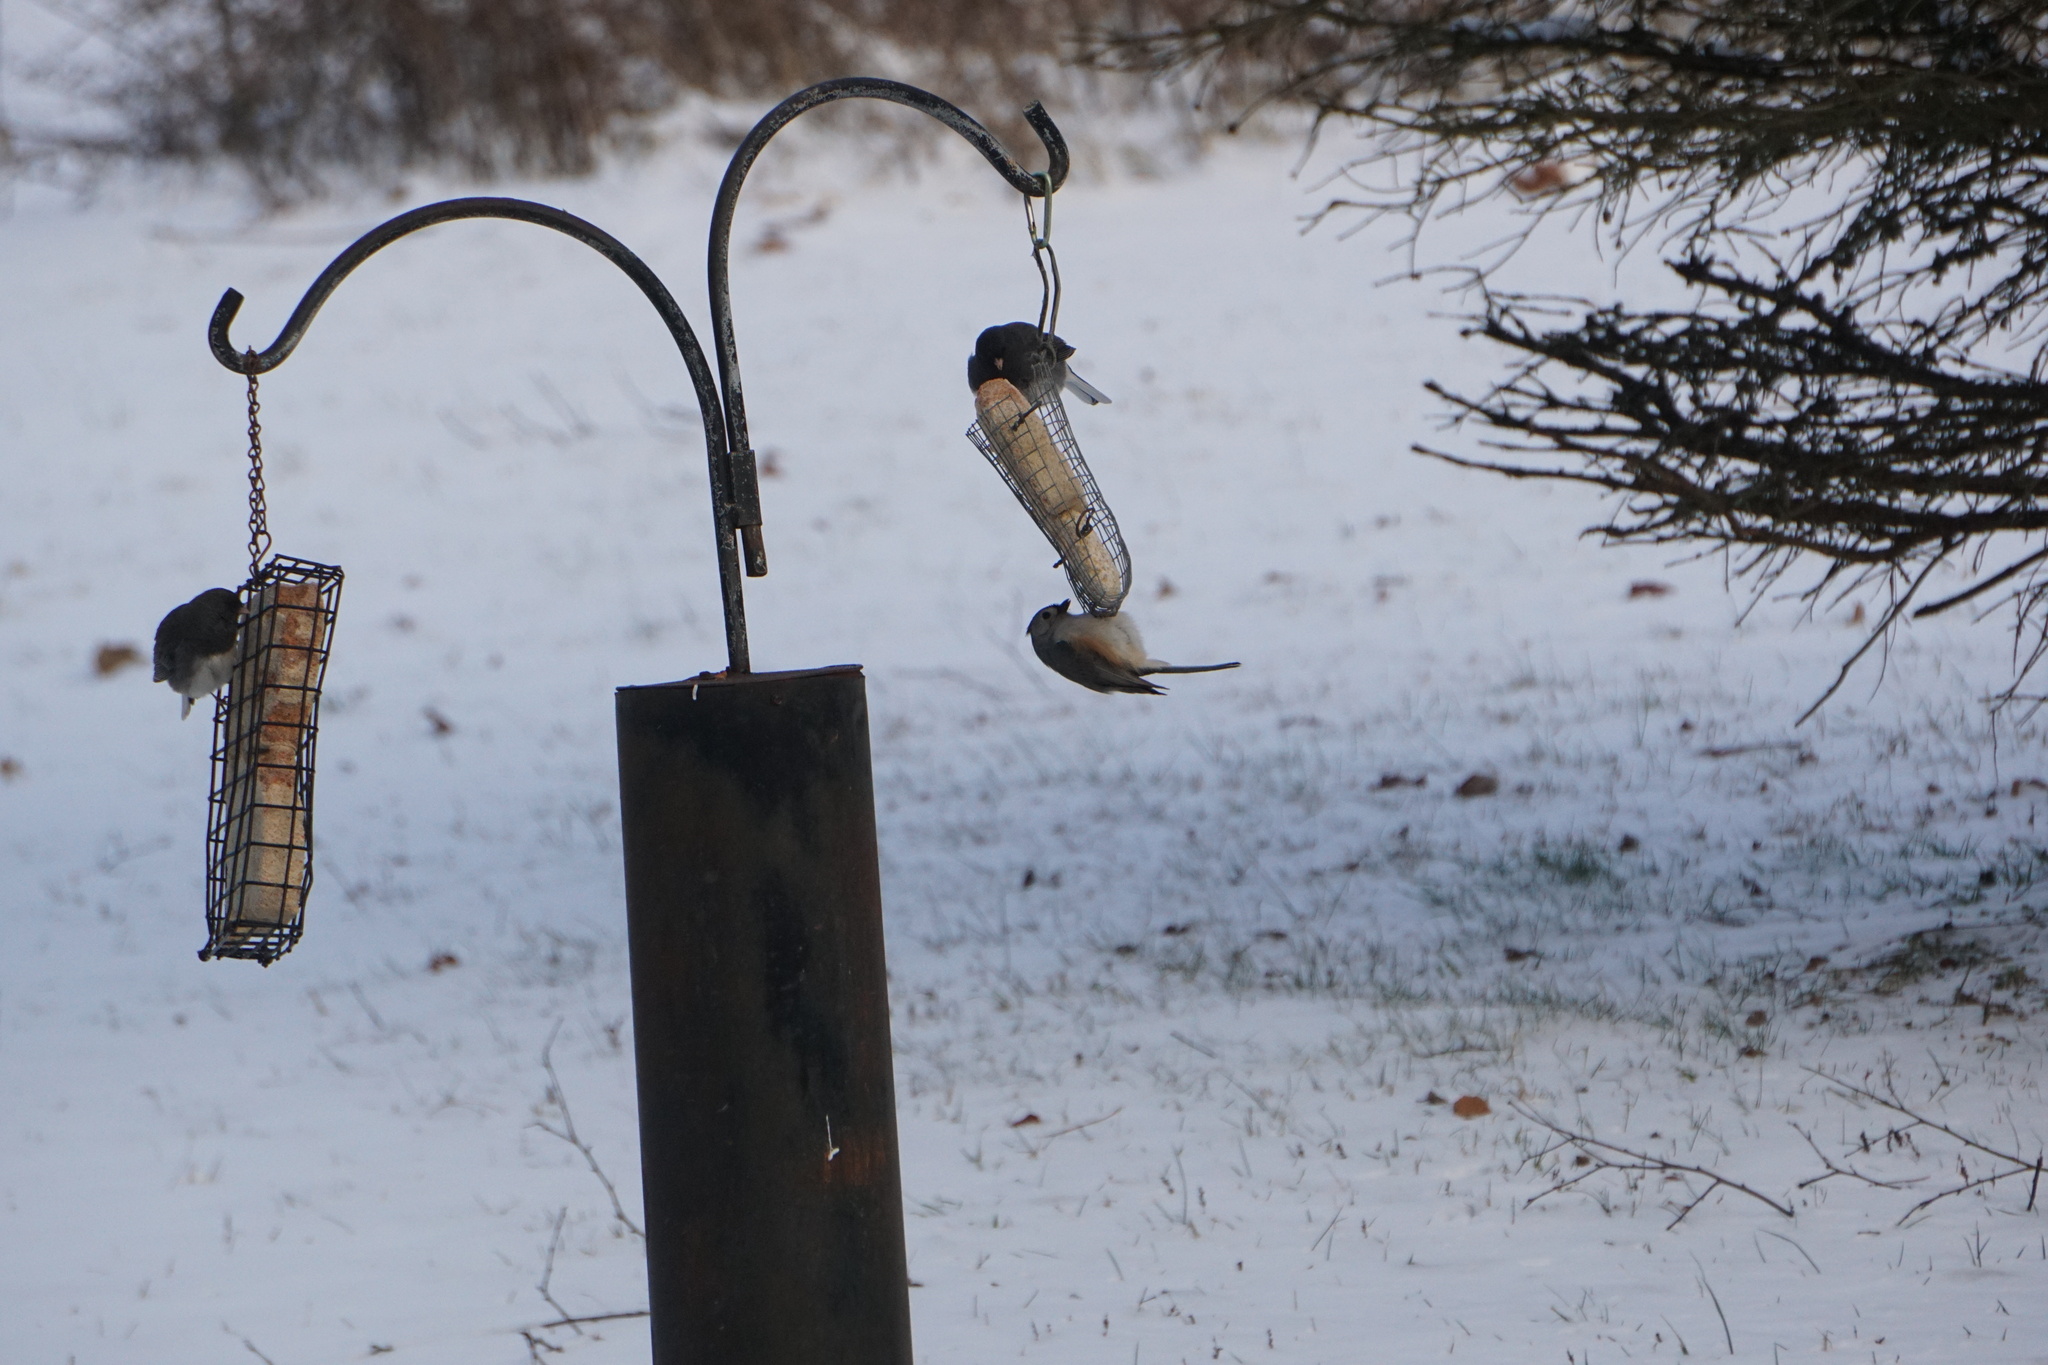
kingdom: Animalia
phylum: Chordata
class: Aves
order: Passeriformes
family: Paridae
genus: Baeolophus
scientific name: Baeolophus bicolor
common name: Tufted titmouse
